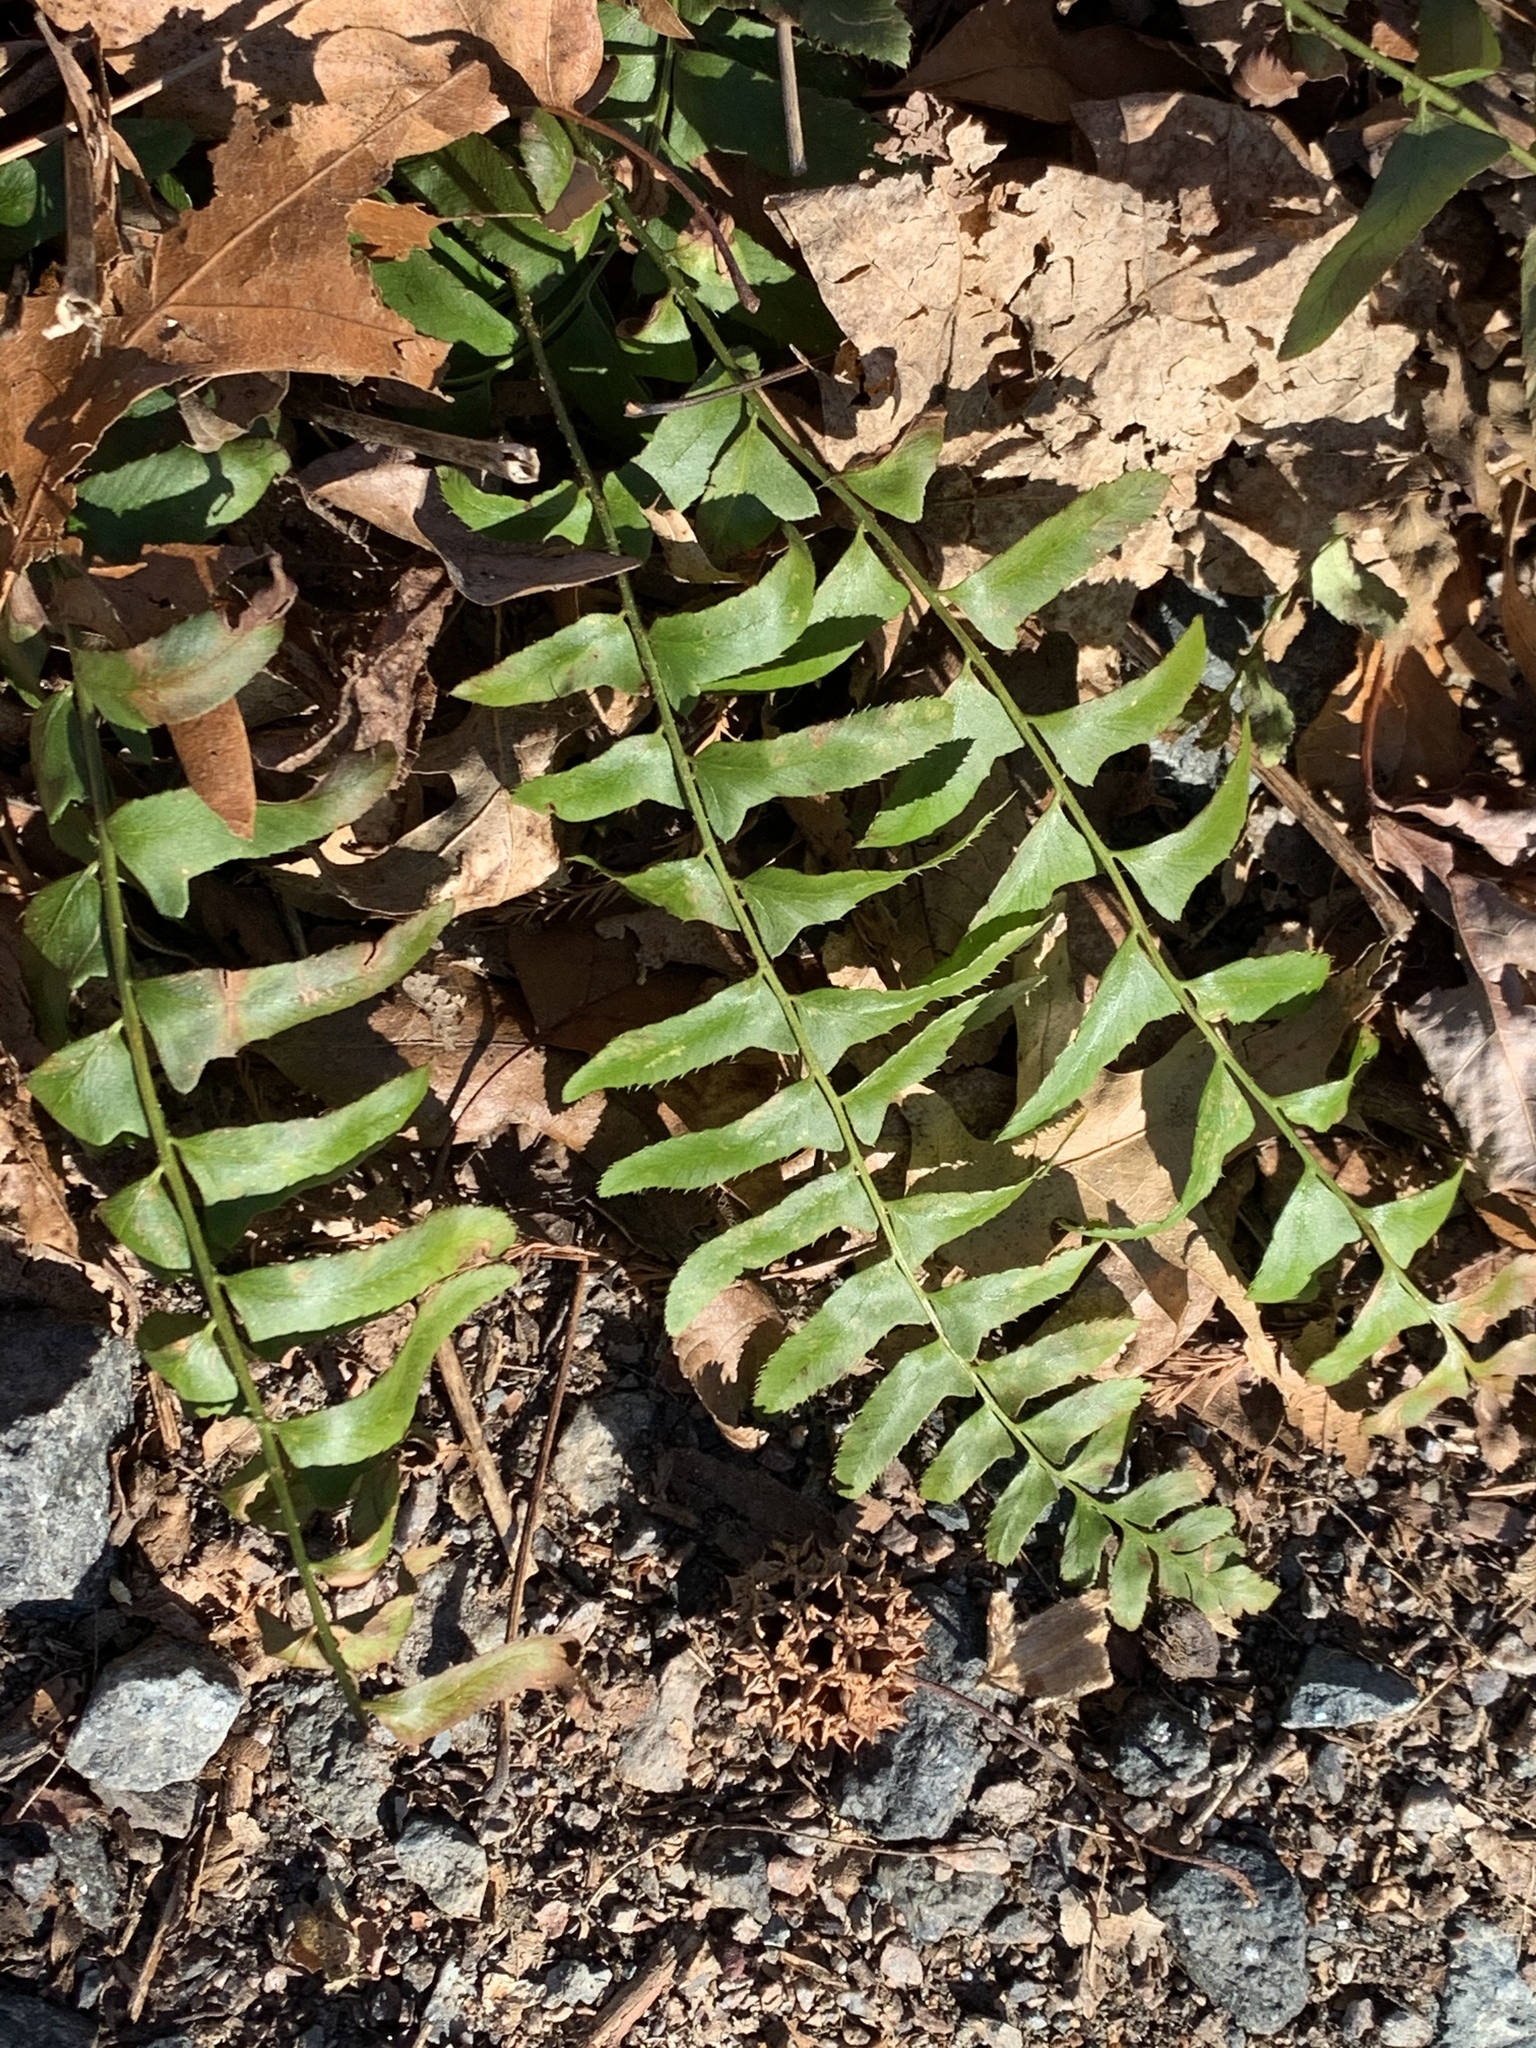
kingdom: Plantae
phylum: Tracheophyta
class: Polypodiopsida
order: Polypodiales
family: Dryopteridaceae
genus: Polystichum
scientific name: Polystichum acrostichoides
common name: Christmas fern
